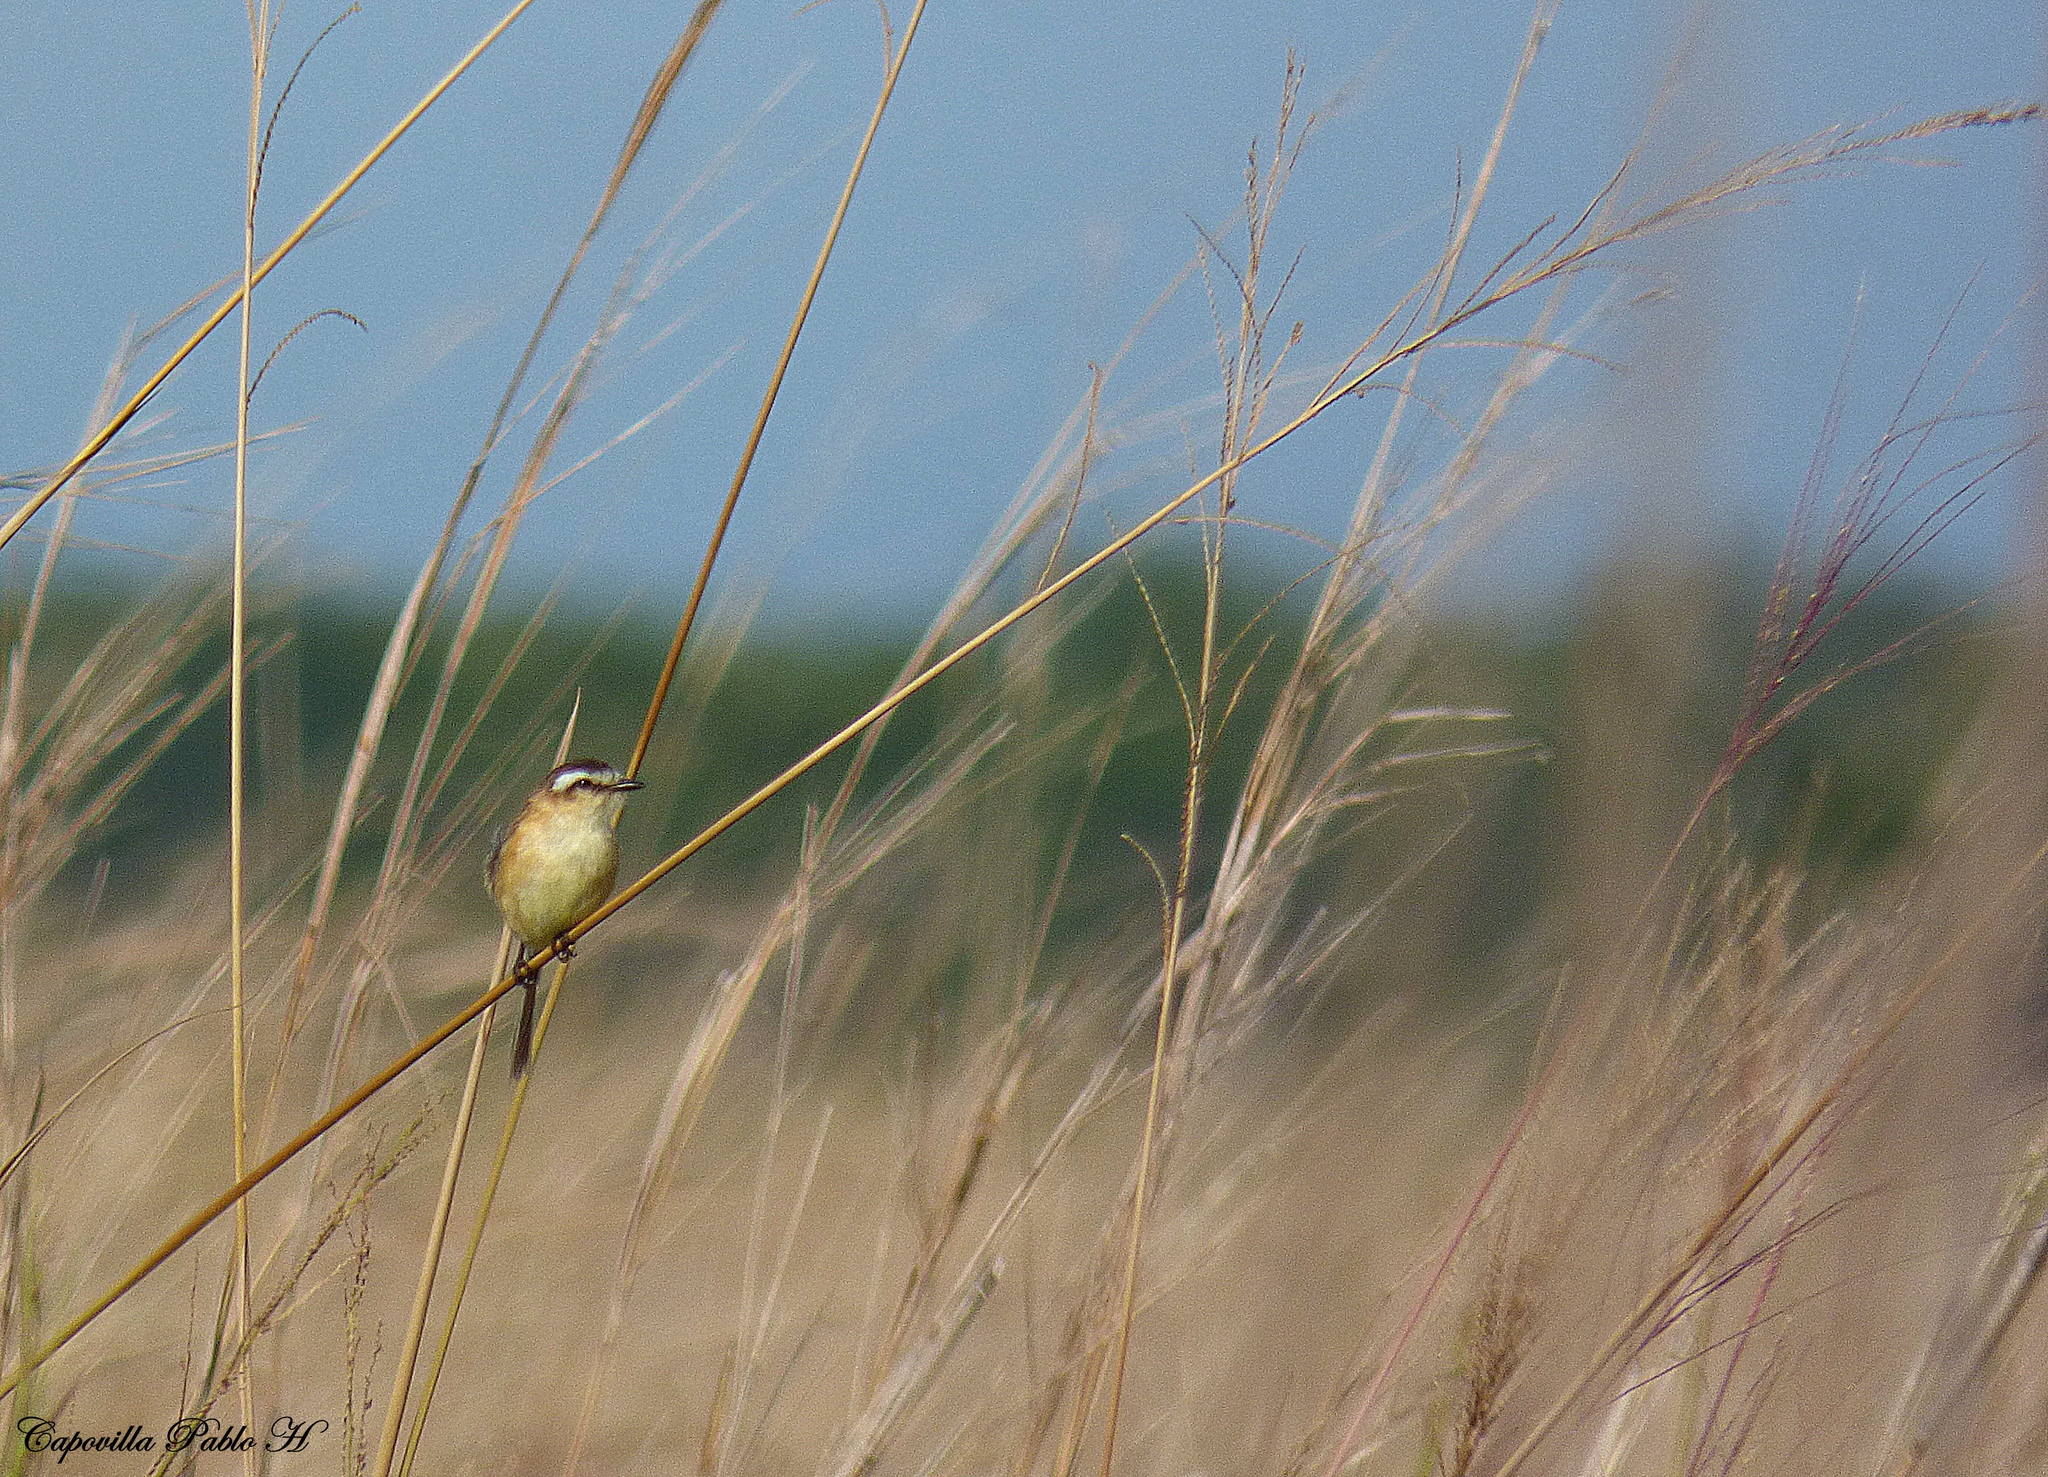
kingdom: Animalia
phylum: Chordata
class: Aves
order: Passeriformes
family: Tyrannidae
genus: Culicivora
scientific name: Culicivora caudacuta
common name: Sharp-tailed grass tyrant
